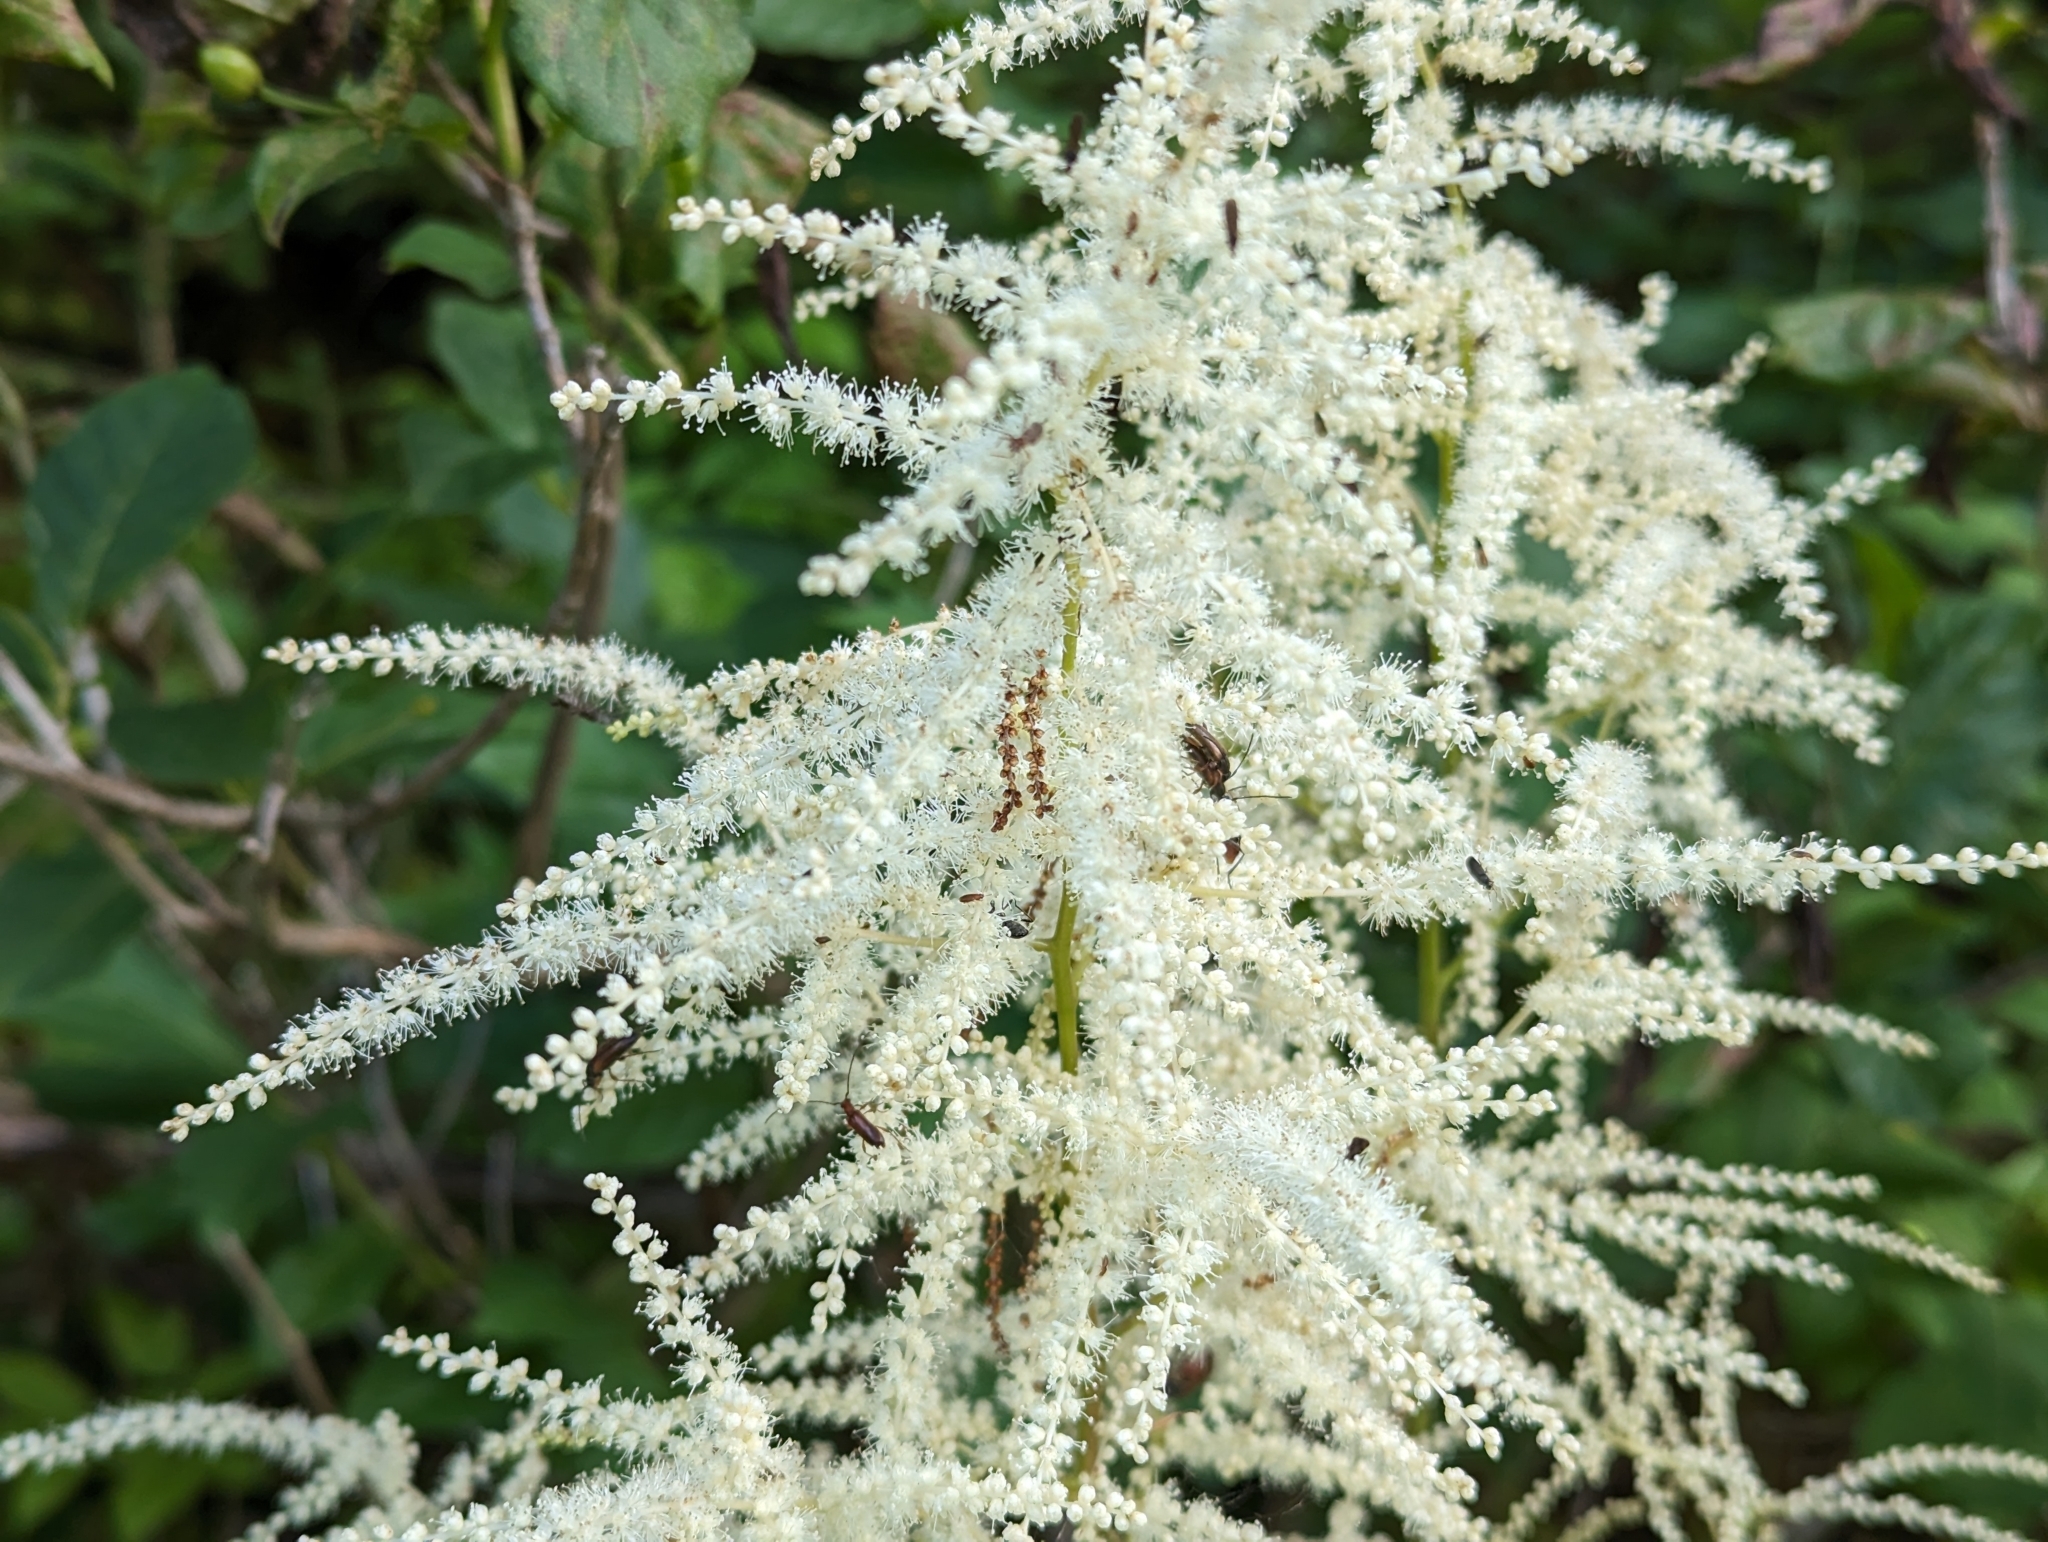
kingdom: Plantae
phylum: Tracheophyta
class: Magnoliopsida
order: Rosales
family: Rosaceae
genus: Aruncus
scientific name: Aruncus dioicus
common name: Buck's-beard
